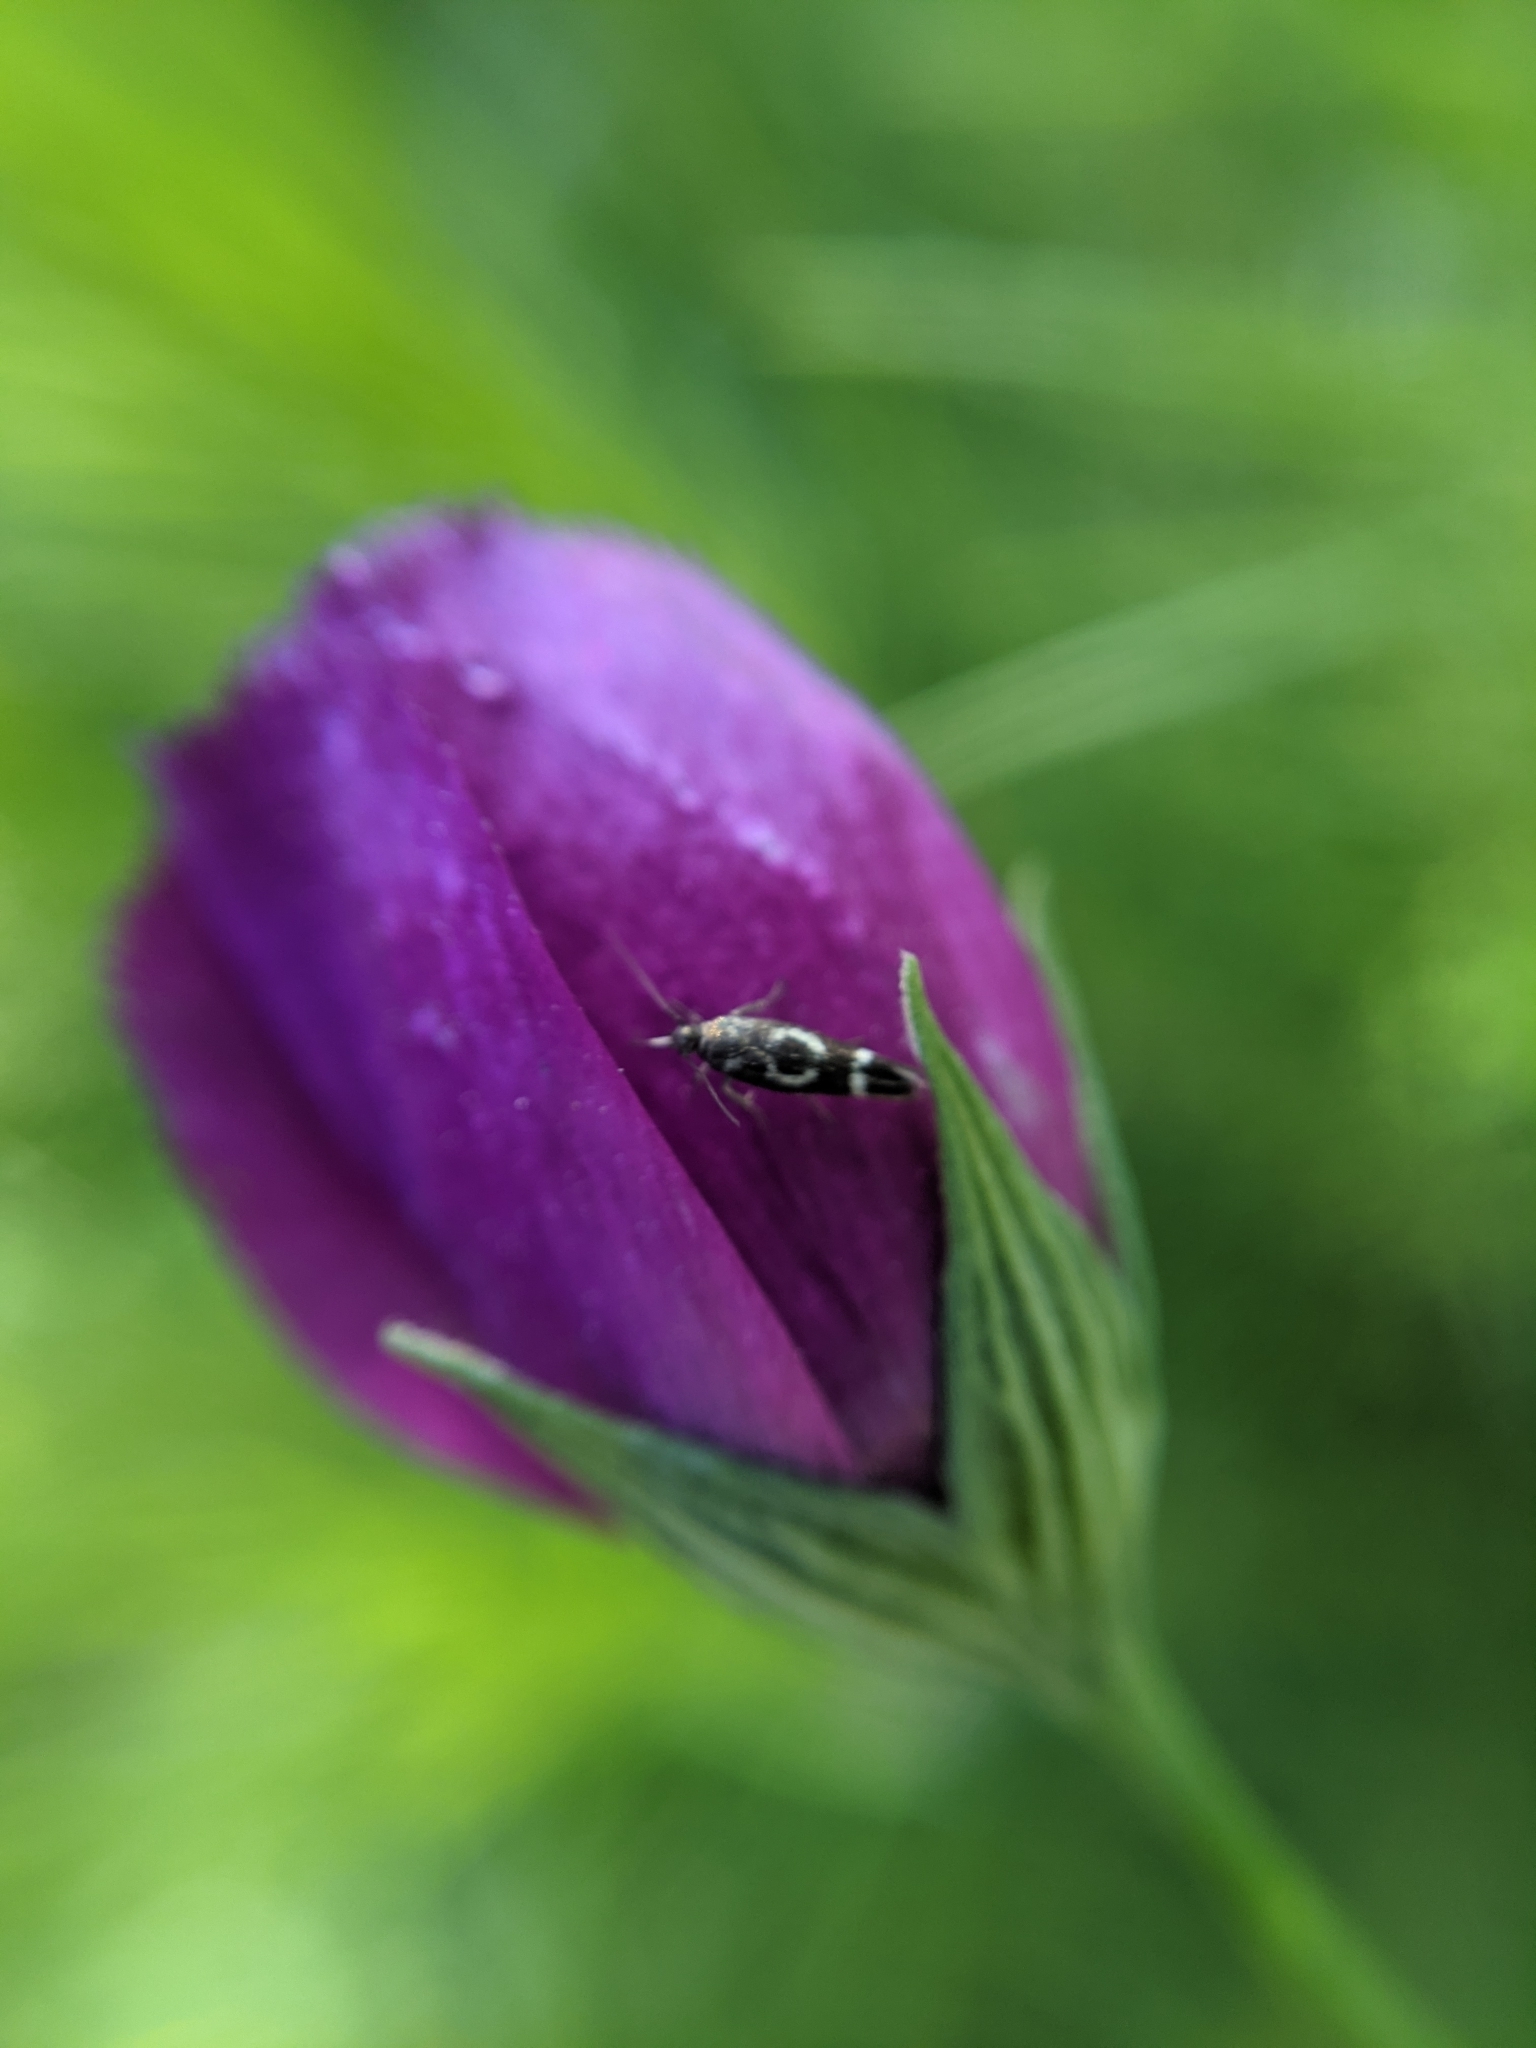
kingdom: Animalia
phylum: Arthropoda
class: Insecta
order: Lepidoptera
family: Scythrididae
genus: Scythris
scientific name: Scythris trivinctella
